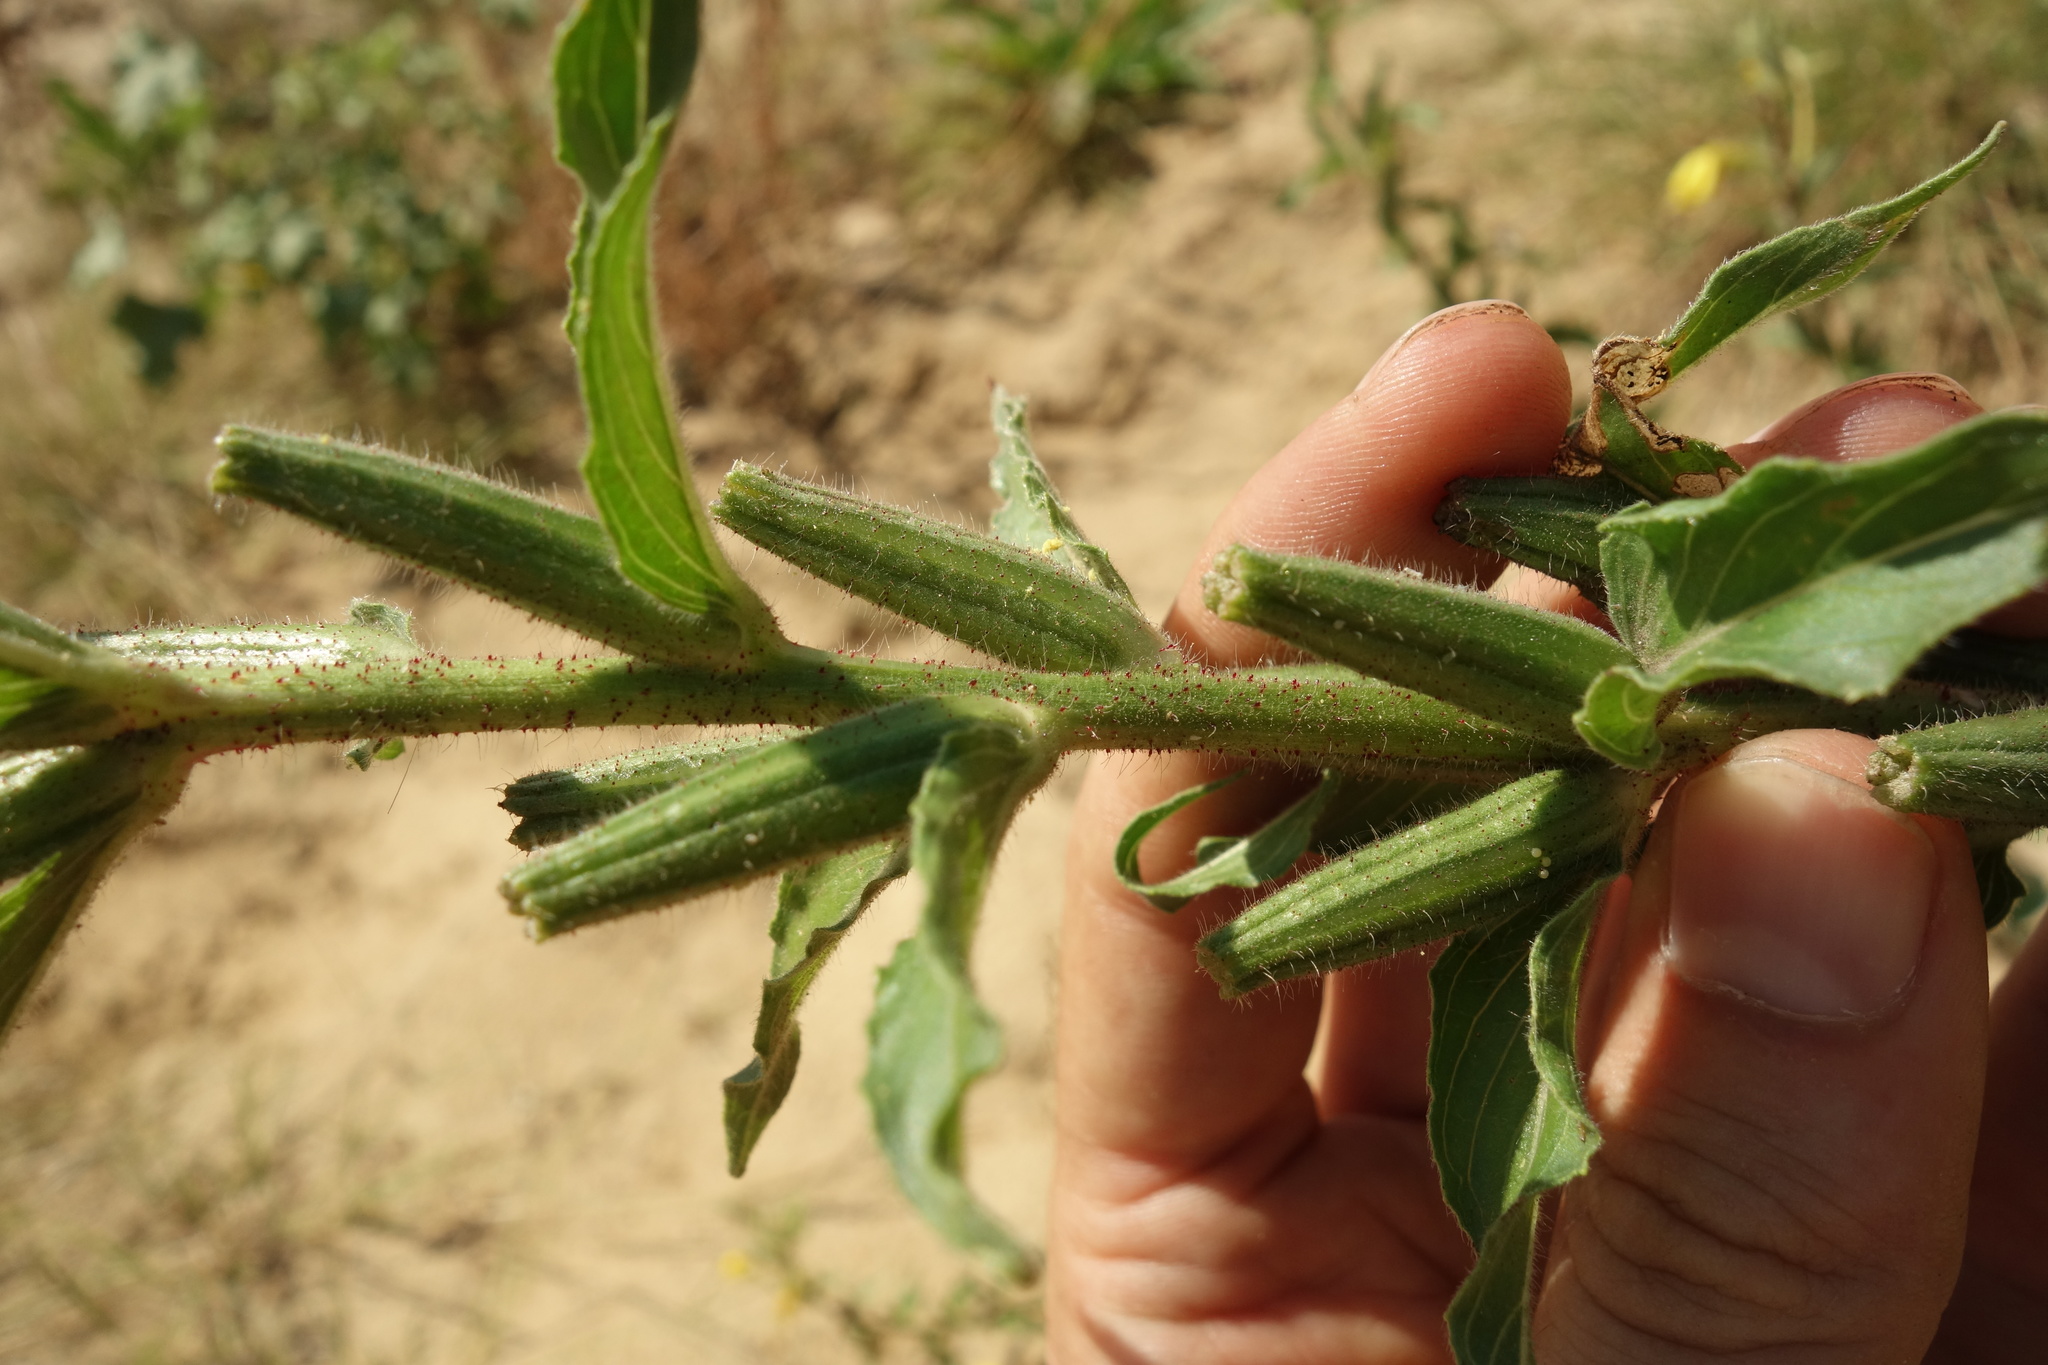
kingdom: Plantae
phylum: Tracheophyta
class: Magnoliopsida
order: Myrtales
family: Onagraceae
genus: Oenothera
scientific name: Oenothera rubricaulis
